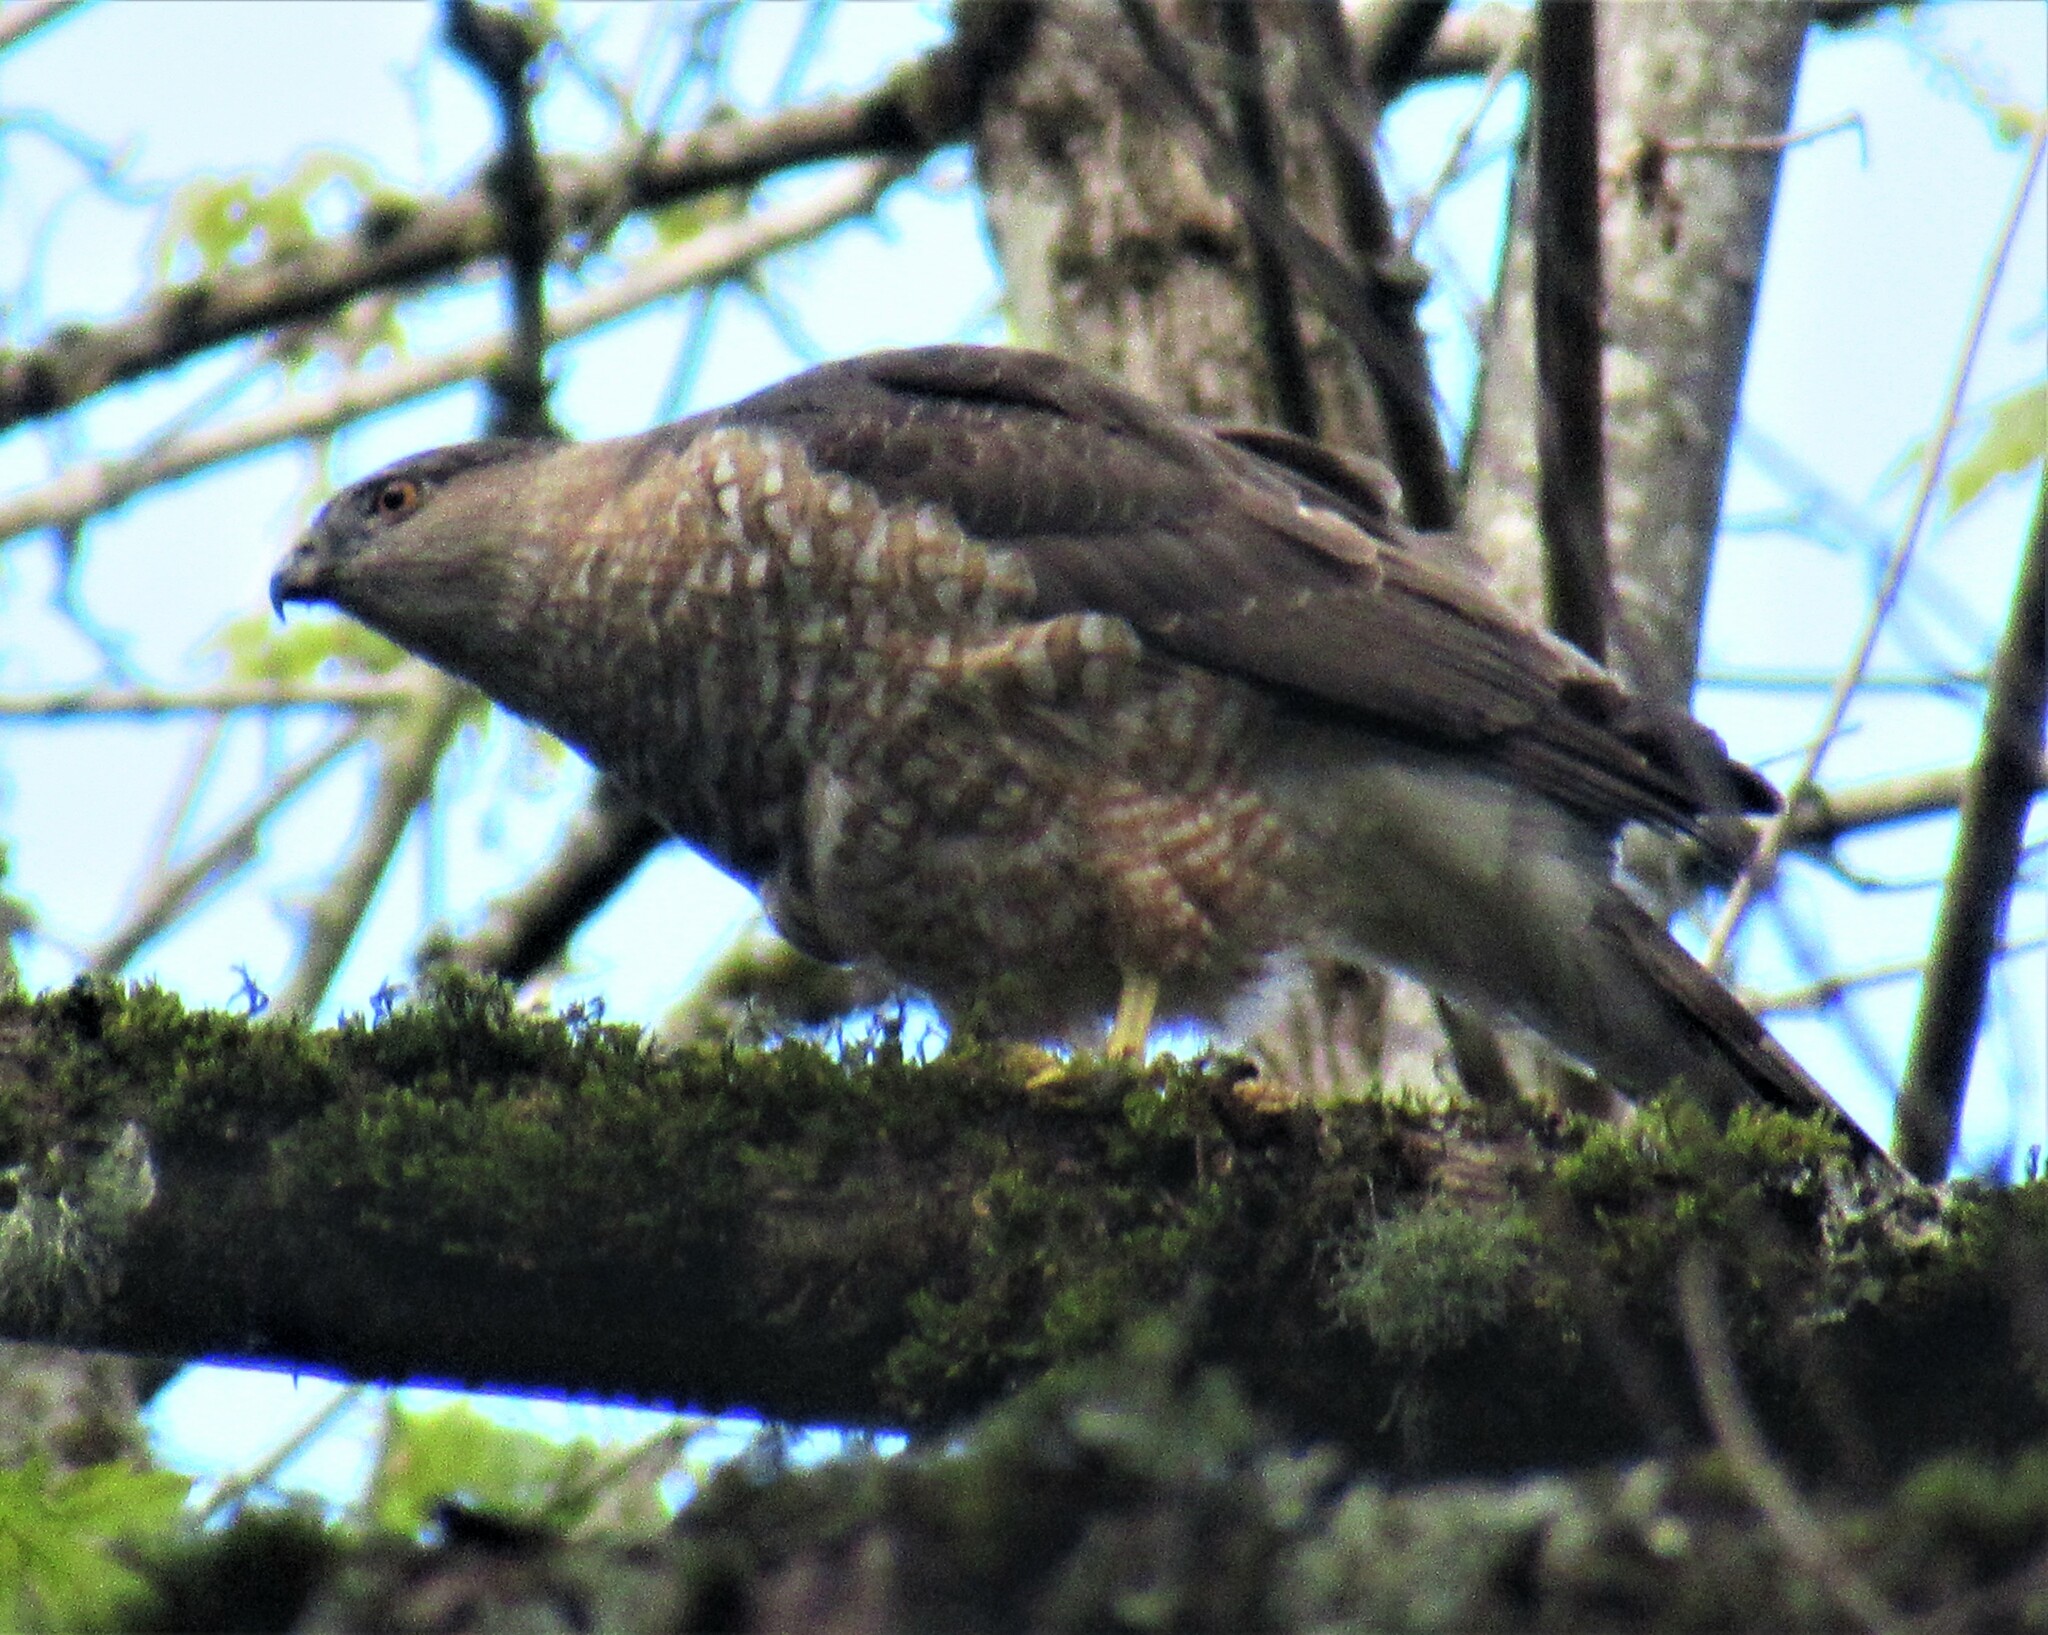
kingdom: Animalia
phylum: Chordata
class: Aves
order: Accipitriformes
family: Accipitridae
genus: Accipiter
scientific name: Accipiter cooperii
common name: Cooper's hawk
